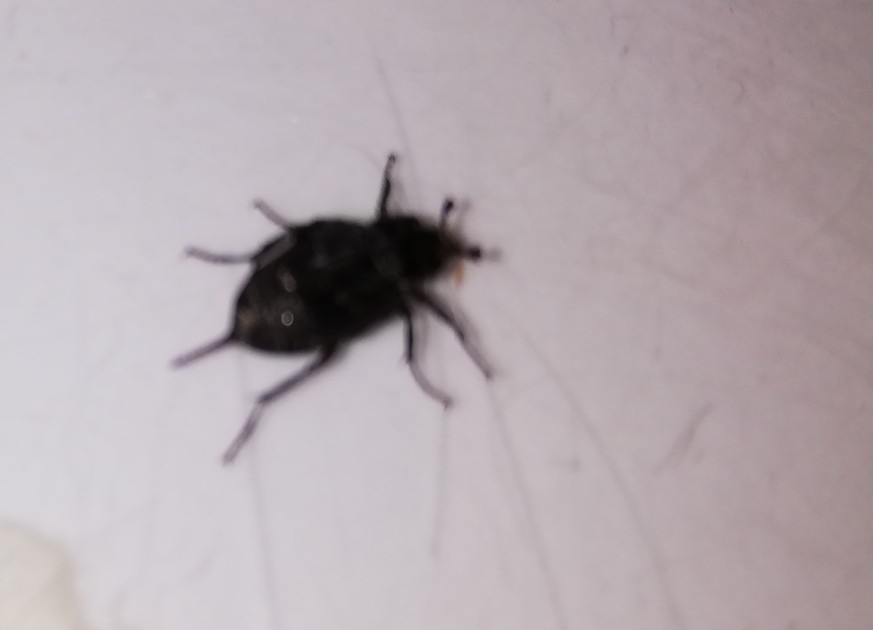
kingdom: Animalia
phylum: Arthropoda
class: Insecta
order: Coleoptera
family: Scarabaeidae
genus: Valgus
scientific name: Valgus hemipterus
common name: Bug flower chafer
